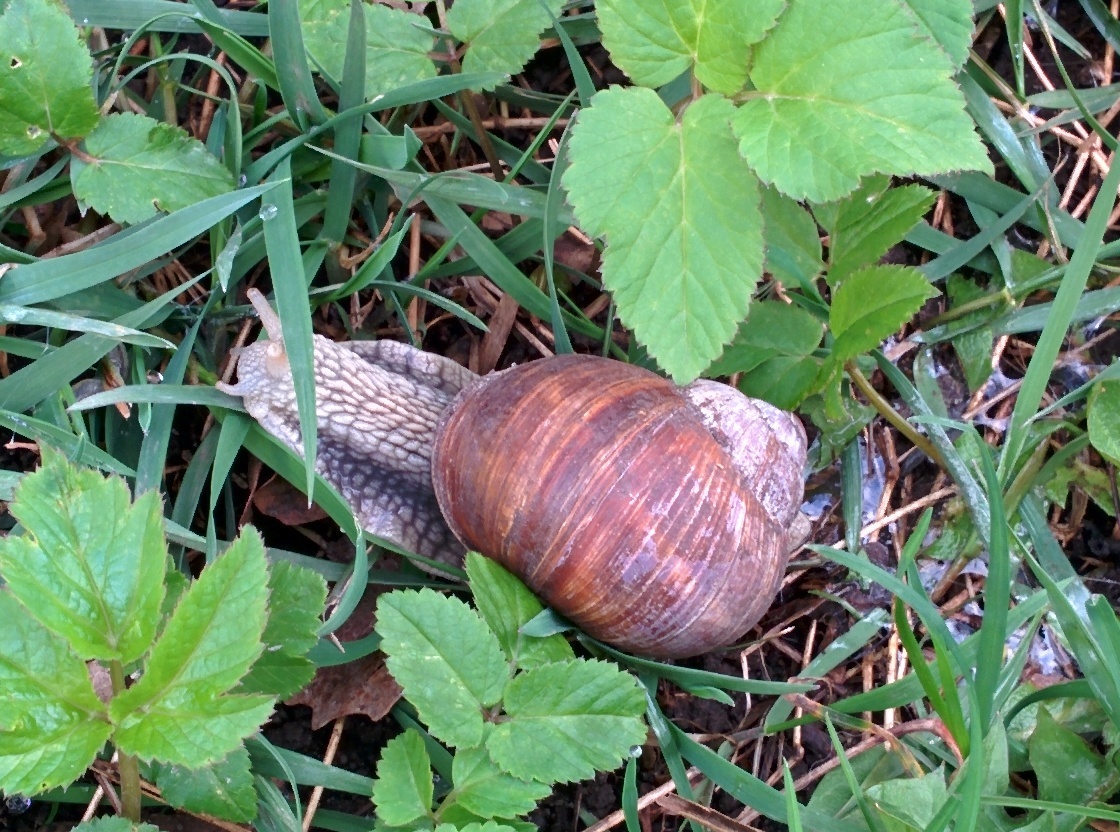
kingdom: Animalia
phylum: Mollusca
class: Gastropoda
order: Stylommatophora
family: Helicidae
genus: Helix
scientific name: Helix pomatia
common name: Roman snail
